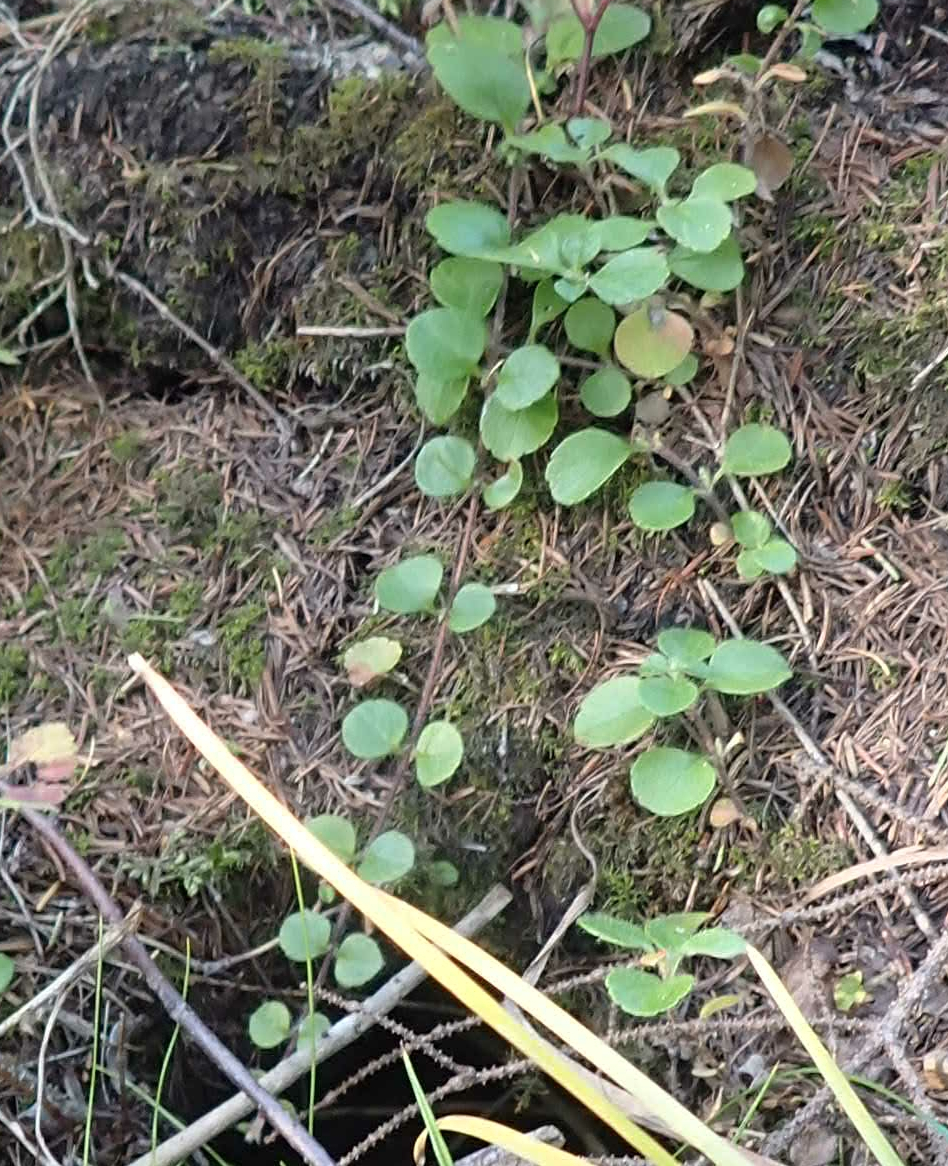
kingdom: Plantae
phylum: Tracheophyta
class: Magnoliopsida
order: Dipsacales
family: Caprifoliaceae
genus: Linnaea
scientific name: Linnaea borealis
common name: Twinflower
